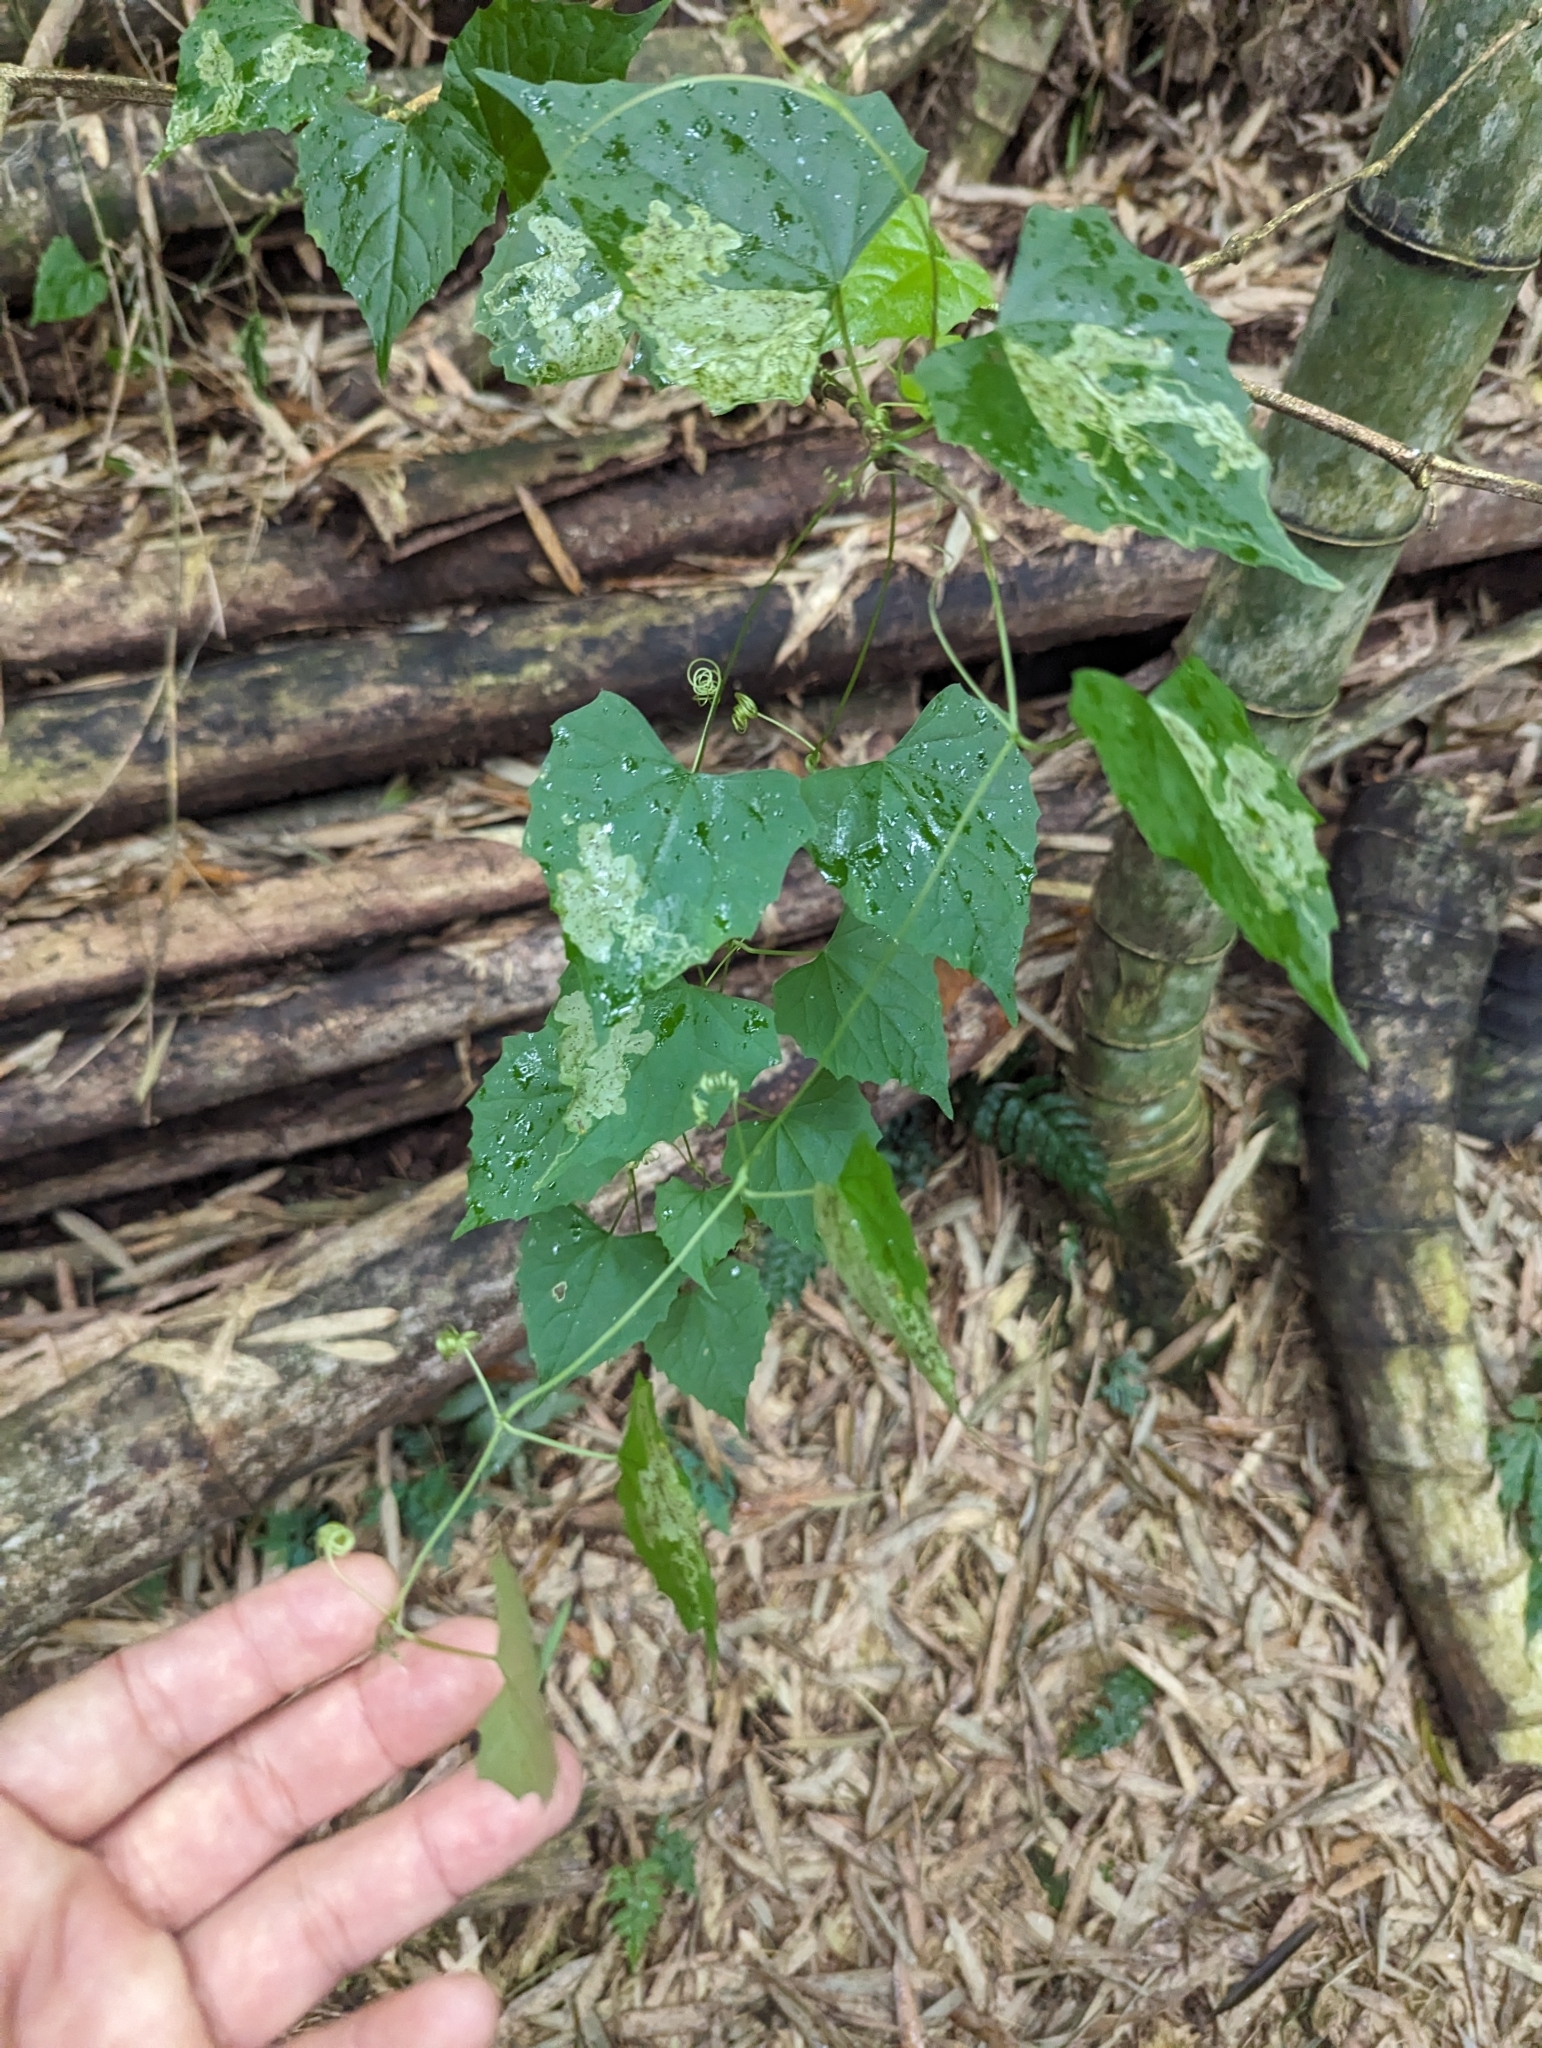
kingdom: Plantae
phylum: Tracheophyta
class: Magnoliopsida
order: Cucurbitales
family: Cucurbitaceae
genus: Zehneria
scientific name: Zehneria guamensis
